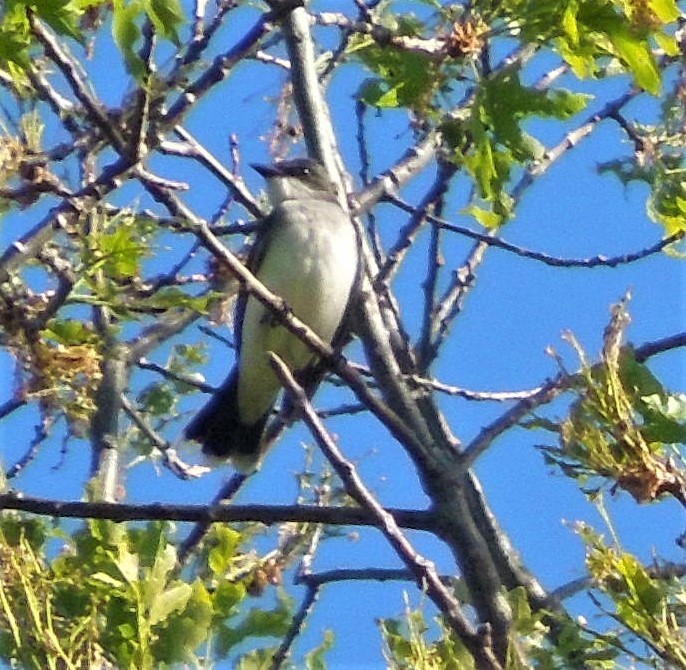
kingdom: Animalia
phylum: Chordata
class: Aves
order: Passeriformes
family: Tyrannidae
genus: Tyrannus
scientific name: Tyrannus tyrannus
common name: Eastern kingbird
